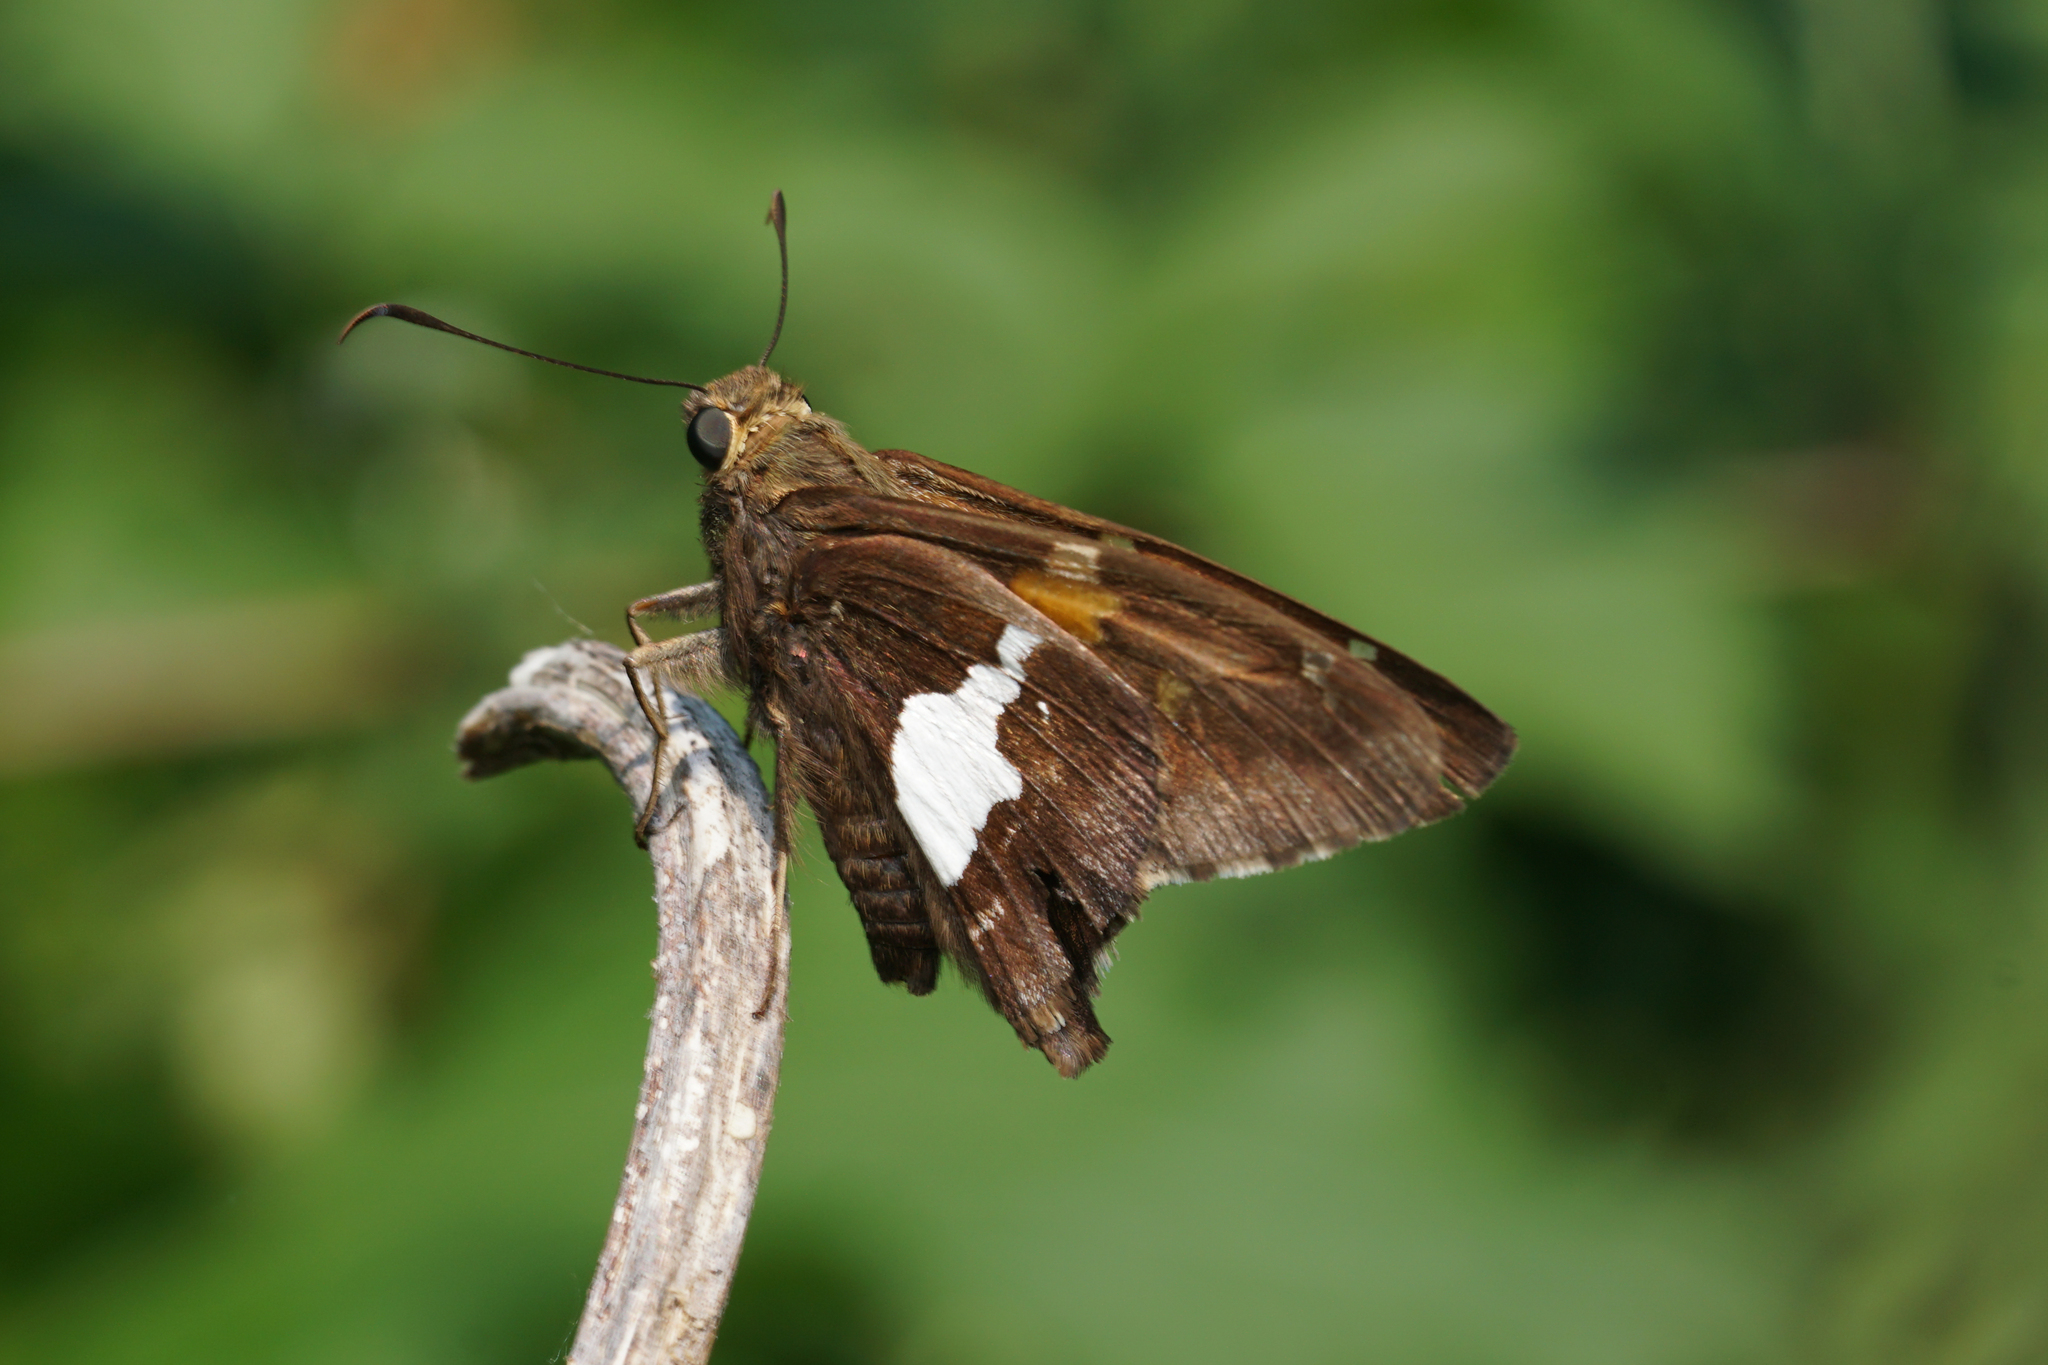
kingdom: Animalia
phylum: Arthropoda
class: Insecta
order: Lepidoptera
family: Hesperiidae
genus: Epargyreus
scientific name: Epargyreus clarus
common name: Silver-spotted skipper
